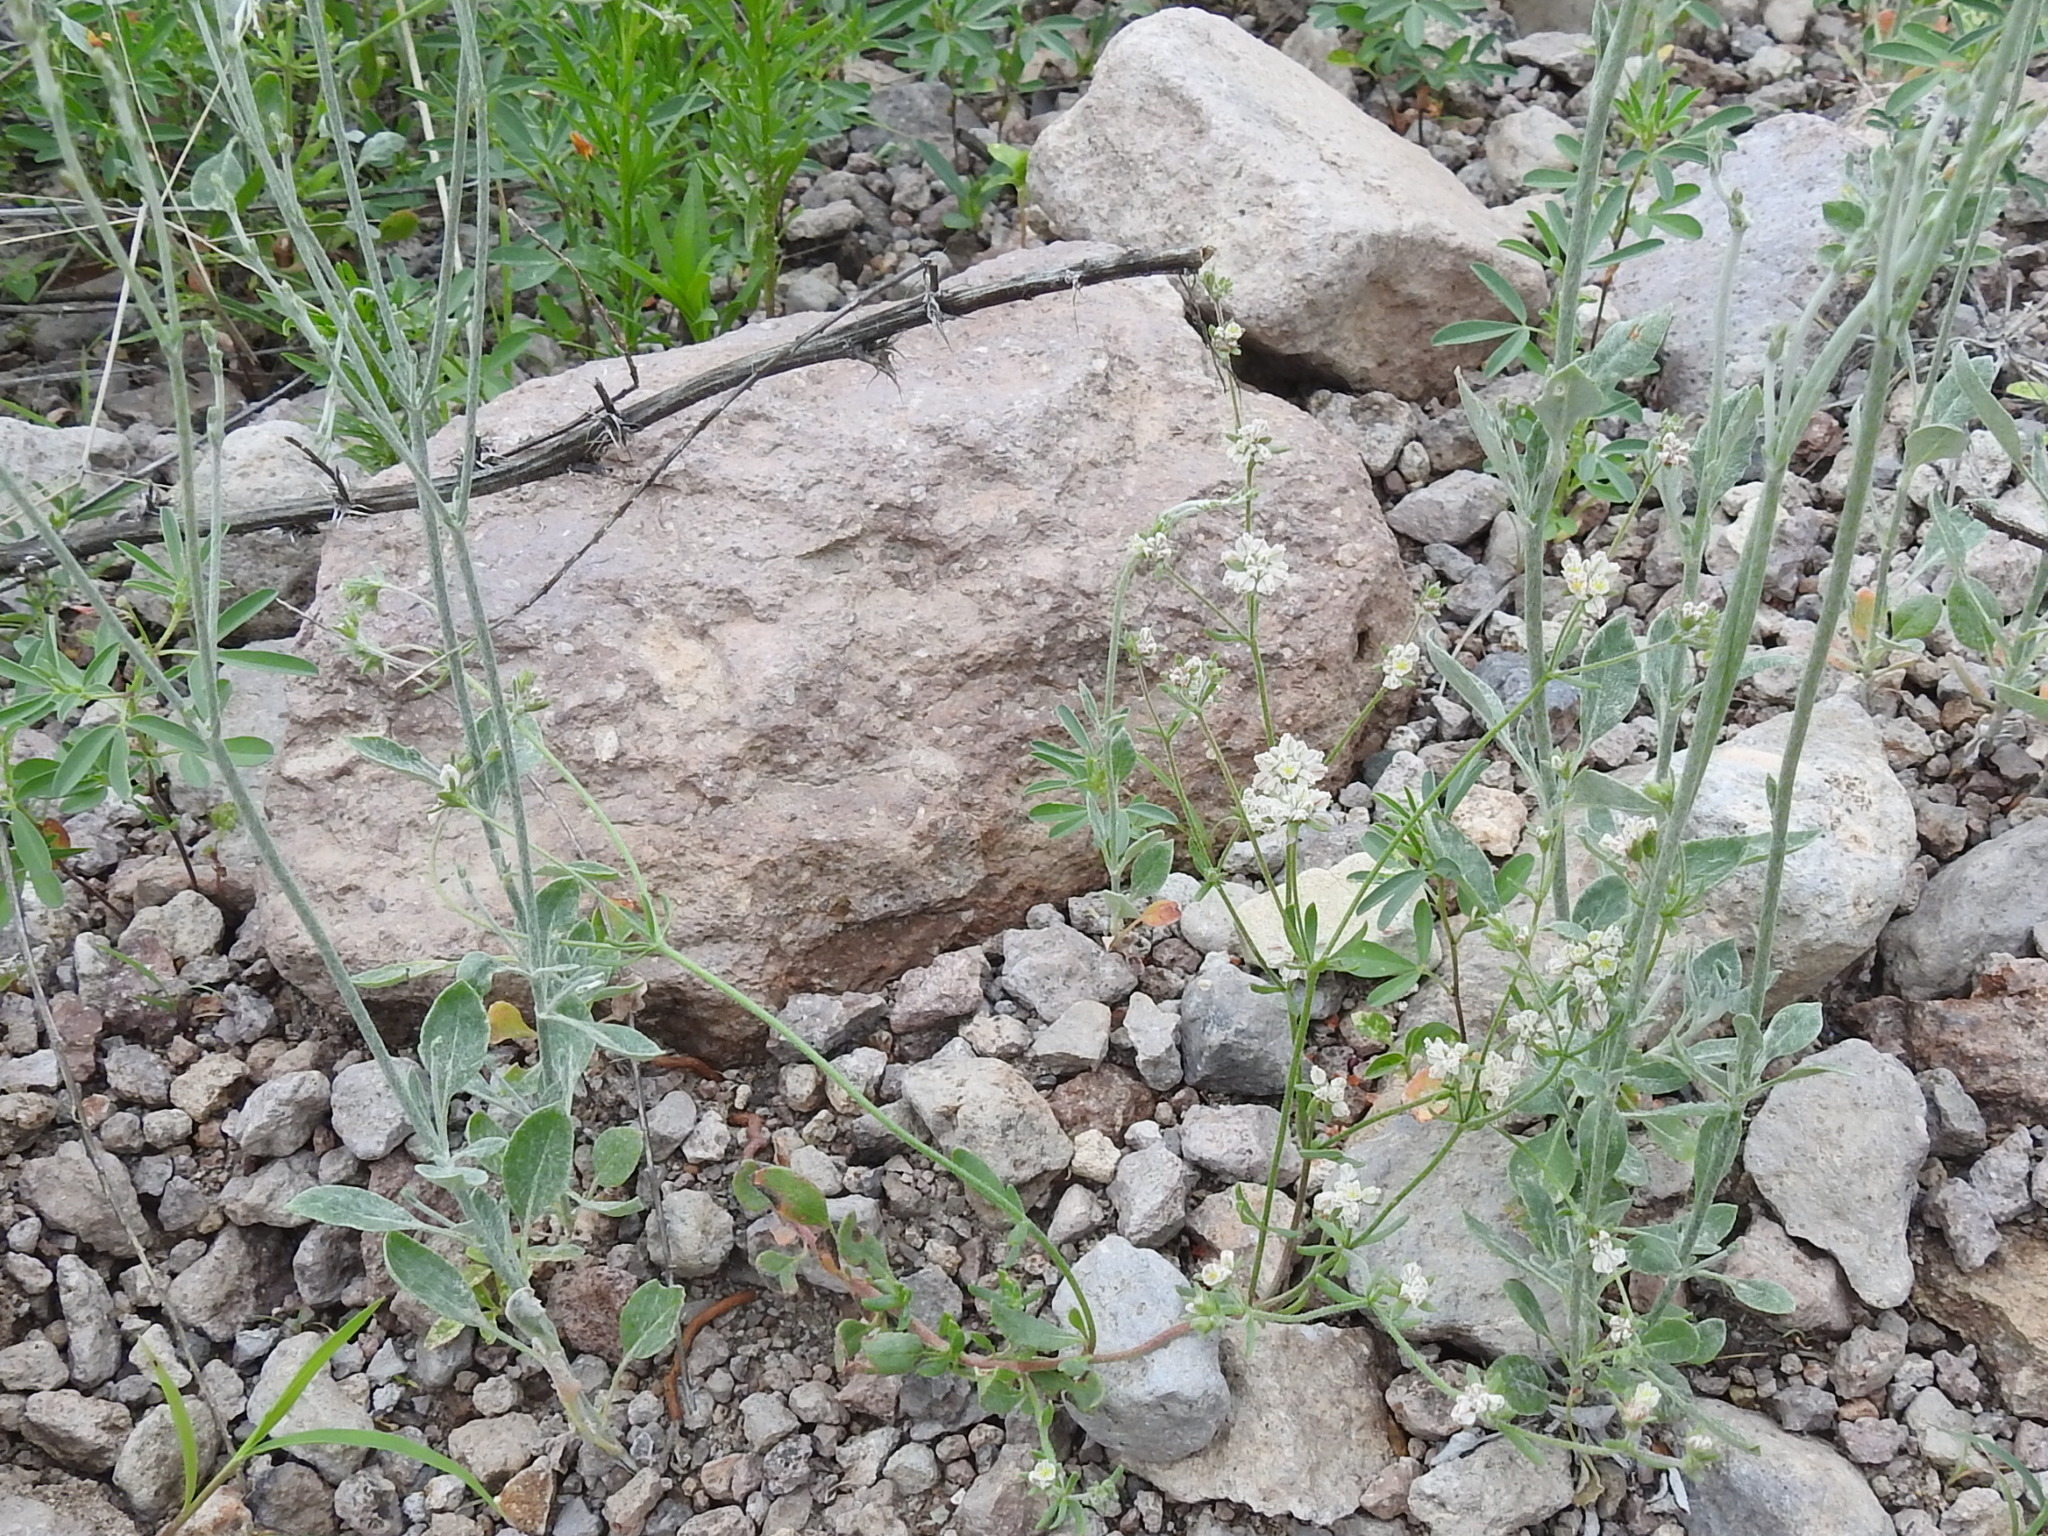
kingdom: Plantae
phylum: Tracheophyta
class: Magnoliopsida
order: Caryophyllales
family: Polygonaceae
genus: Eriogonum
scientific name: Eriogonum abertianum
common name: Abert's wild buckwheat
